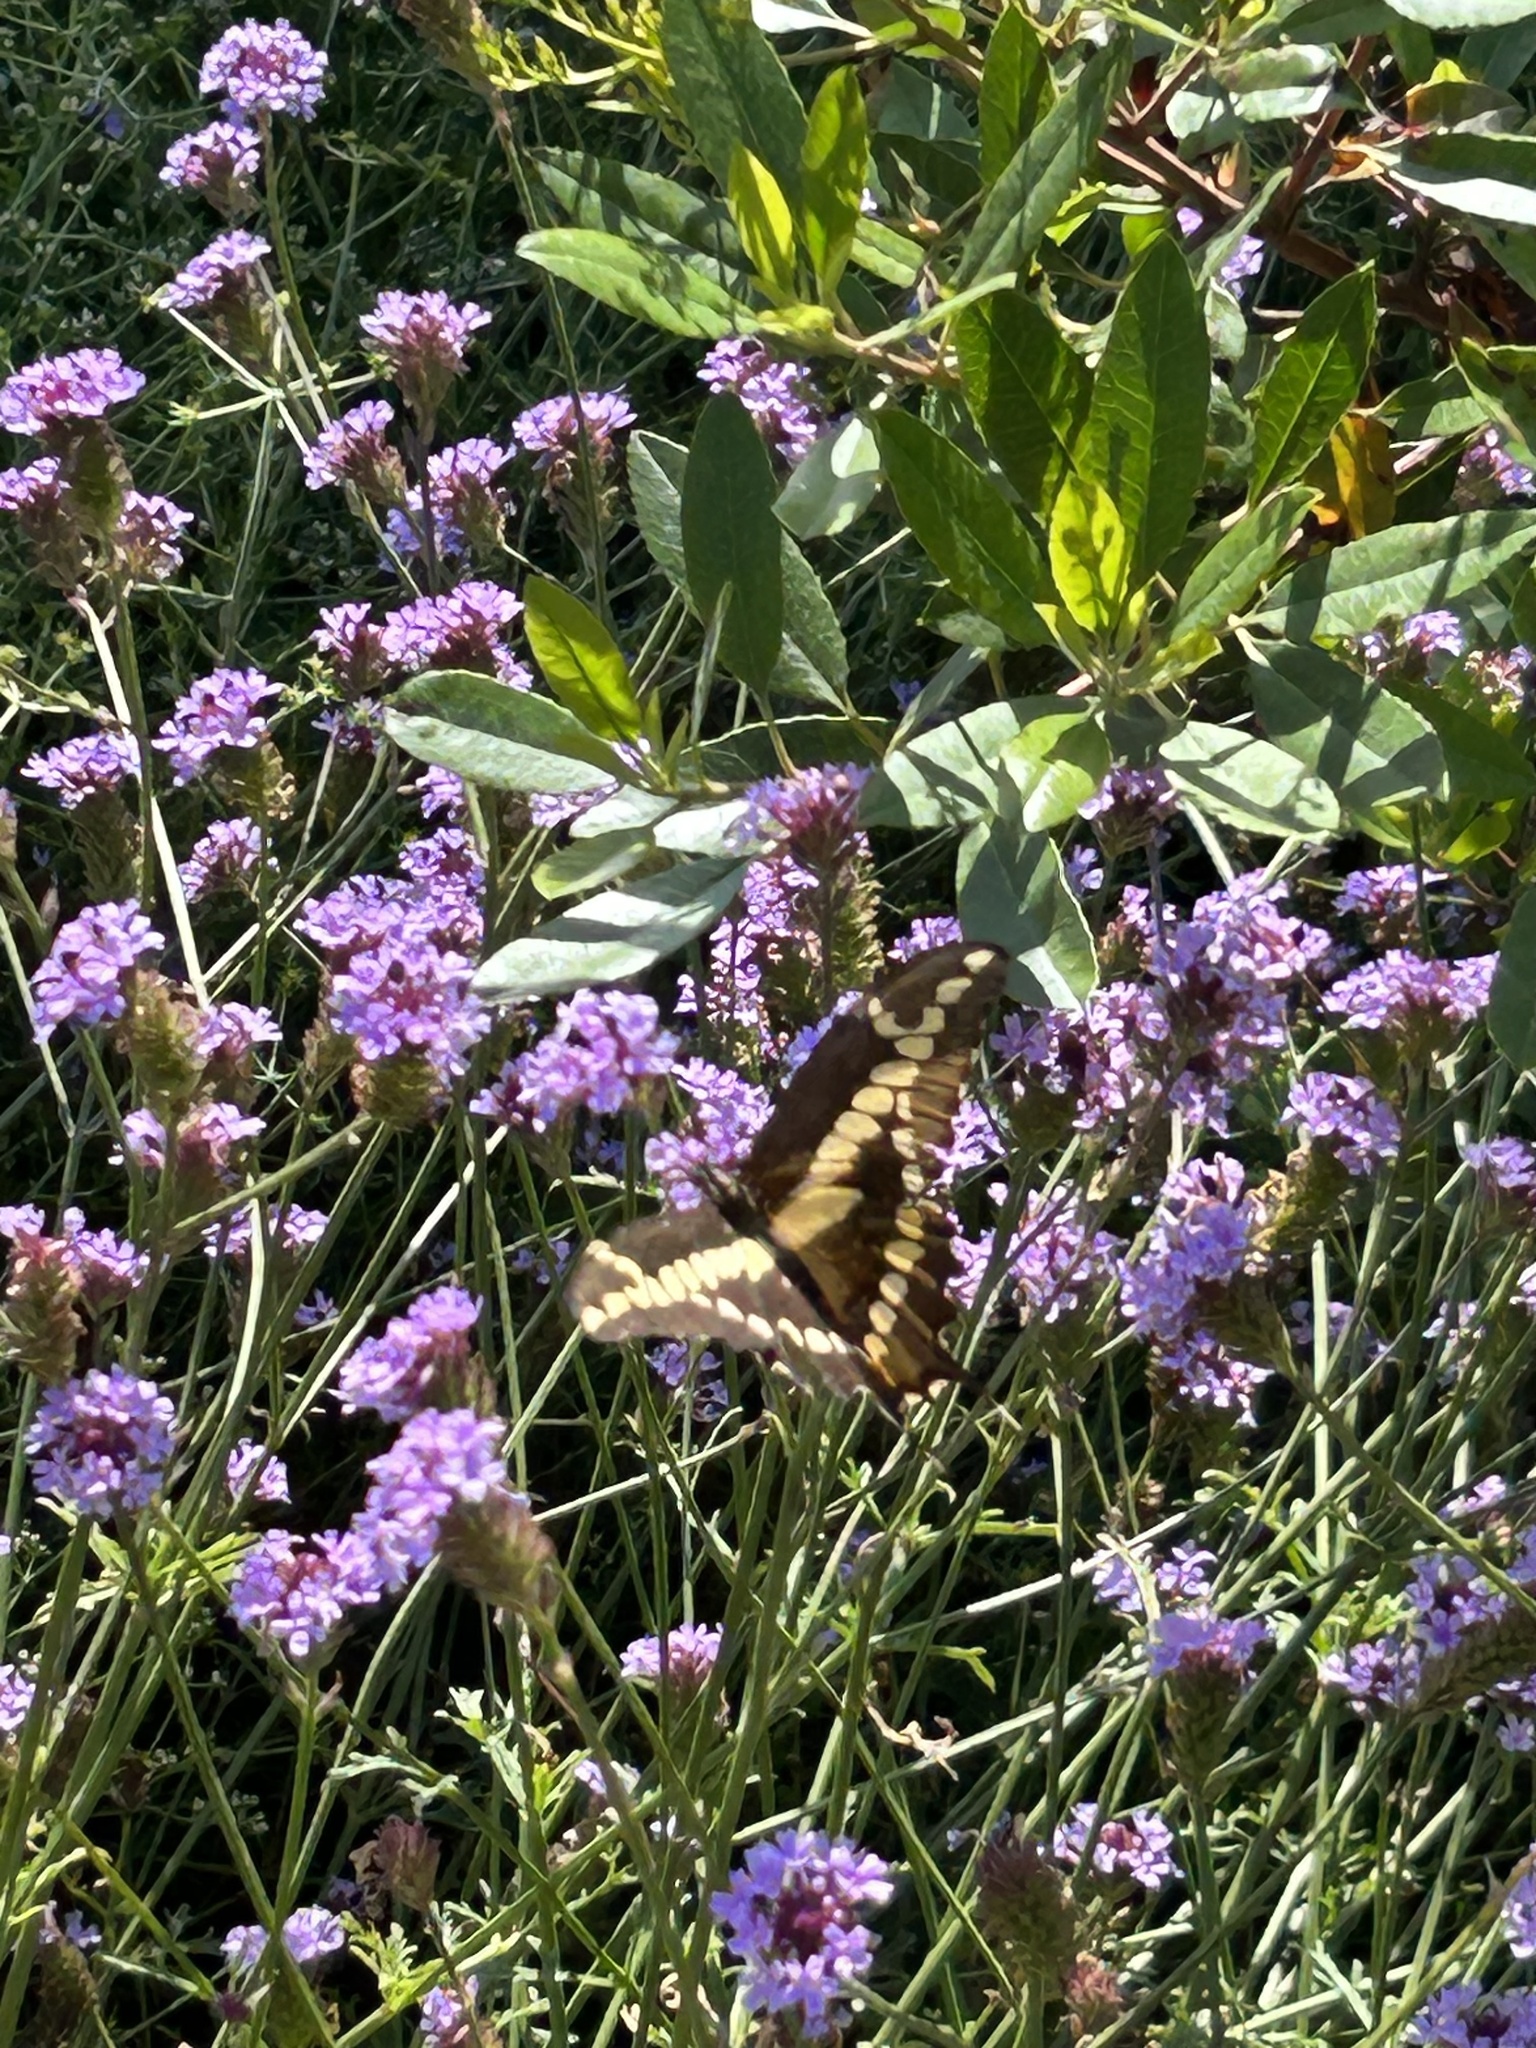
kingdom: Animalia
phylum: Arthropoda
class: Insecta
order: Lepidoptera
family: Papilionidae
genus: Papilio
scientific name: Papilio rumiko
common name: Western giant swallowtail
